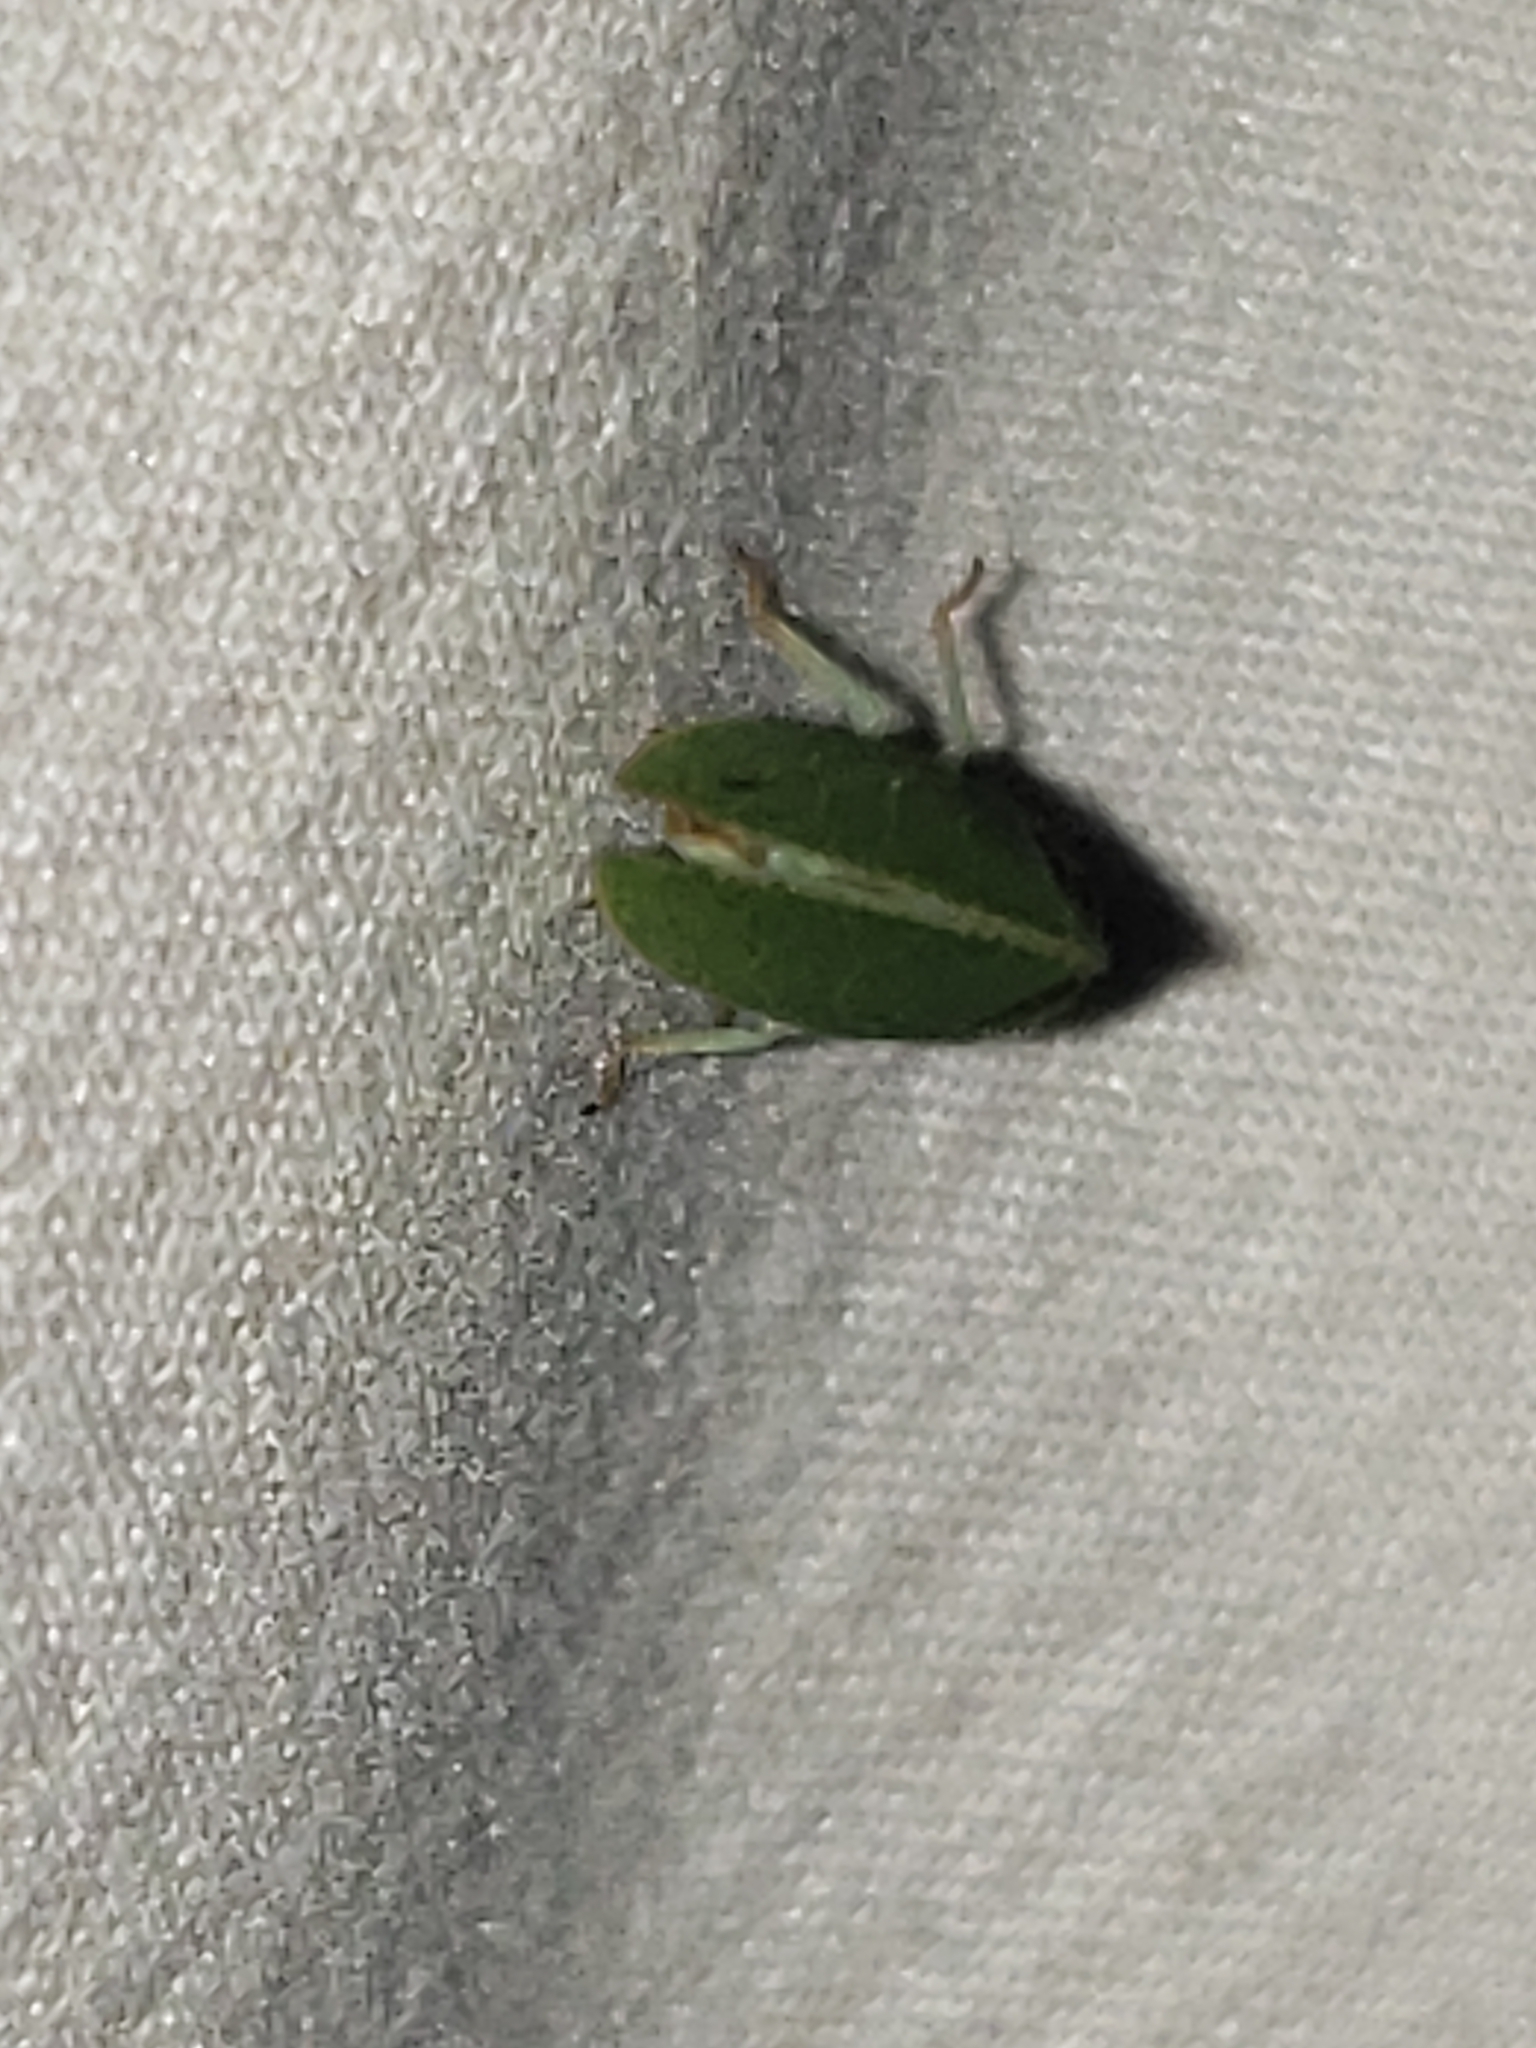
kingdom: Animalia
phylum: Arthropoda
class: Insecta
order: Hemiptera
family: Acanaloniidae
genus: Acanalonia
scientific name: Acanalonia conica
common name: Green cone-headed planthopper
